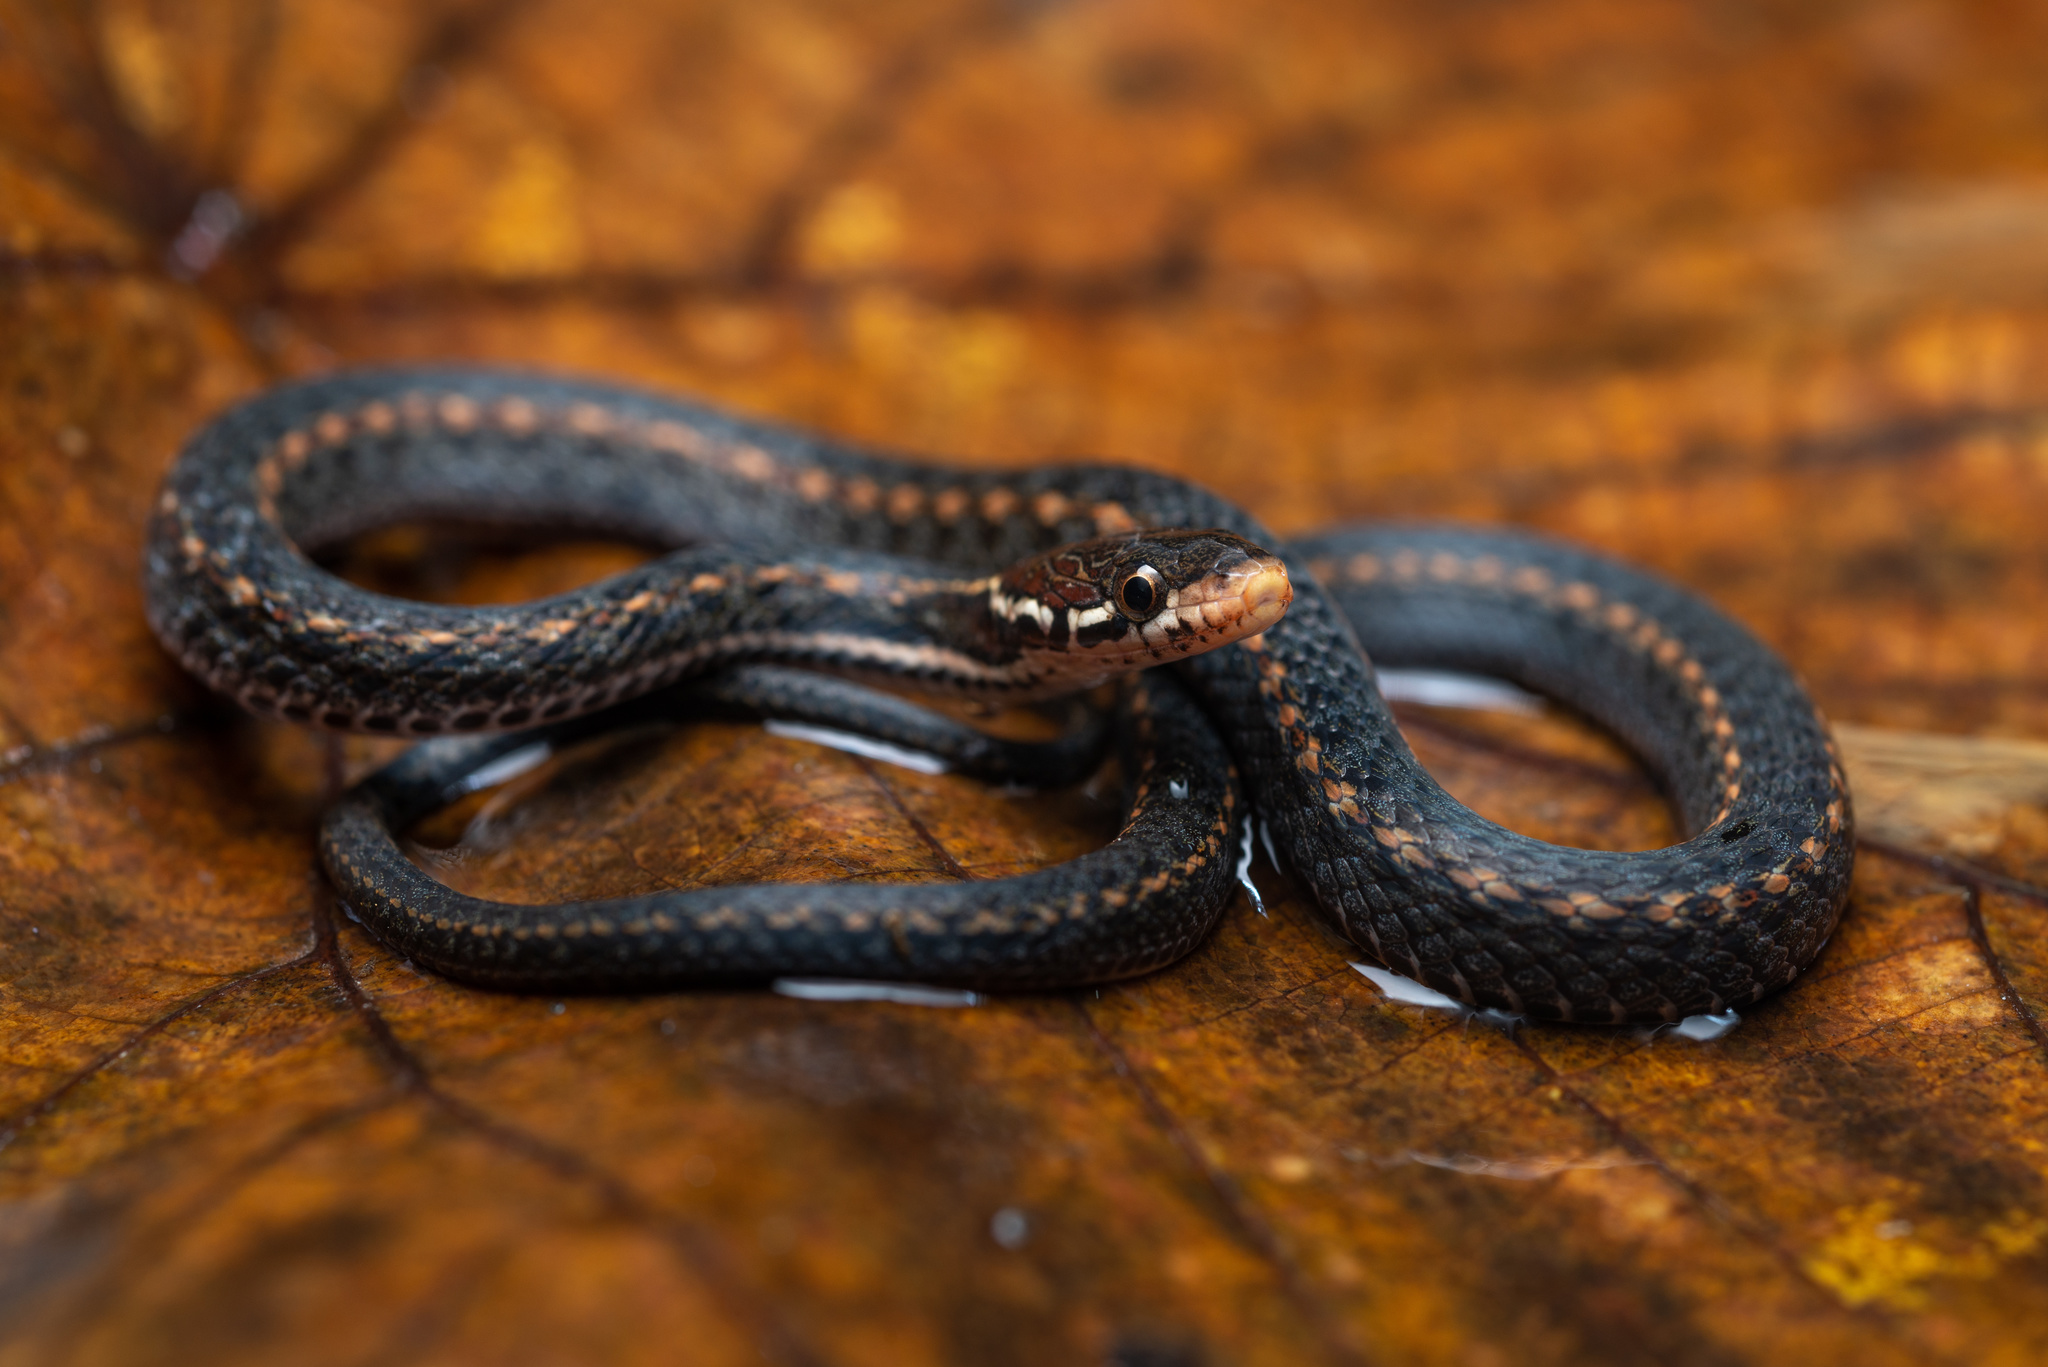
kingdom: Animalia
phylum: Chordata
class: Squamata
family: Colubridae
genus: Hebius
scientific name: Hebius boulengeri
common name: Boulenger's keelback
